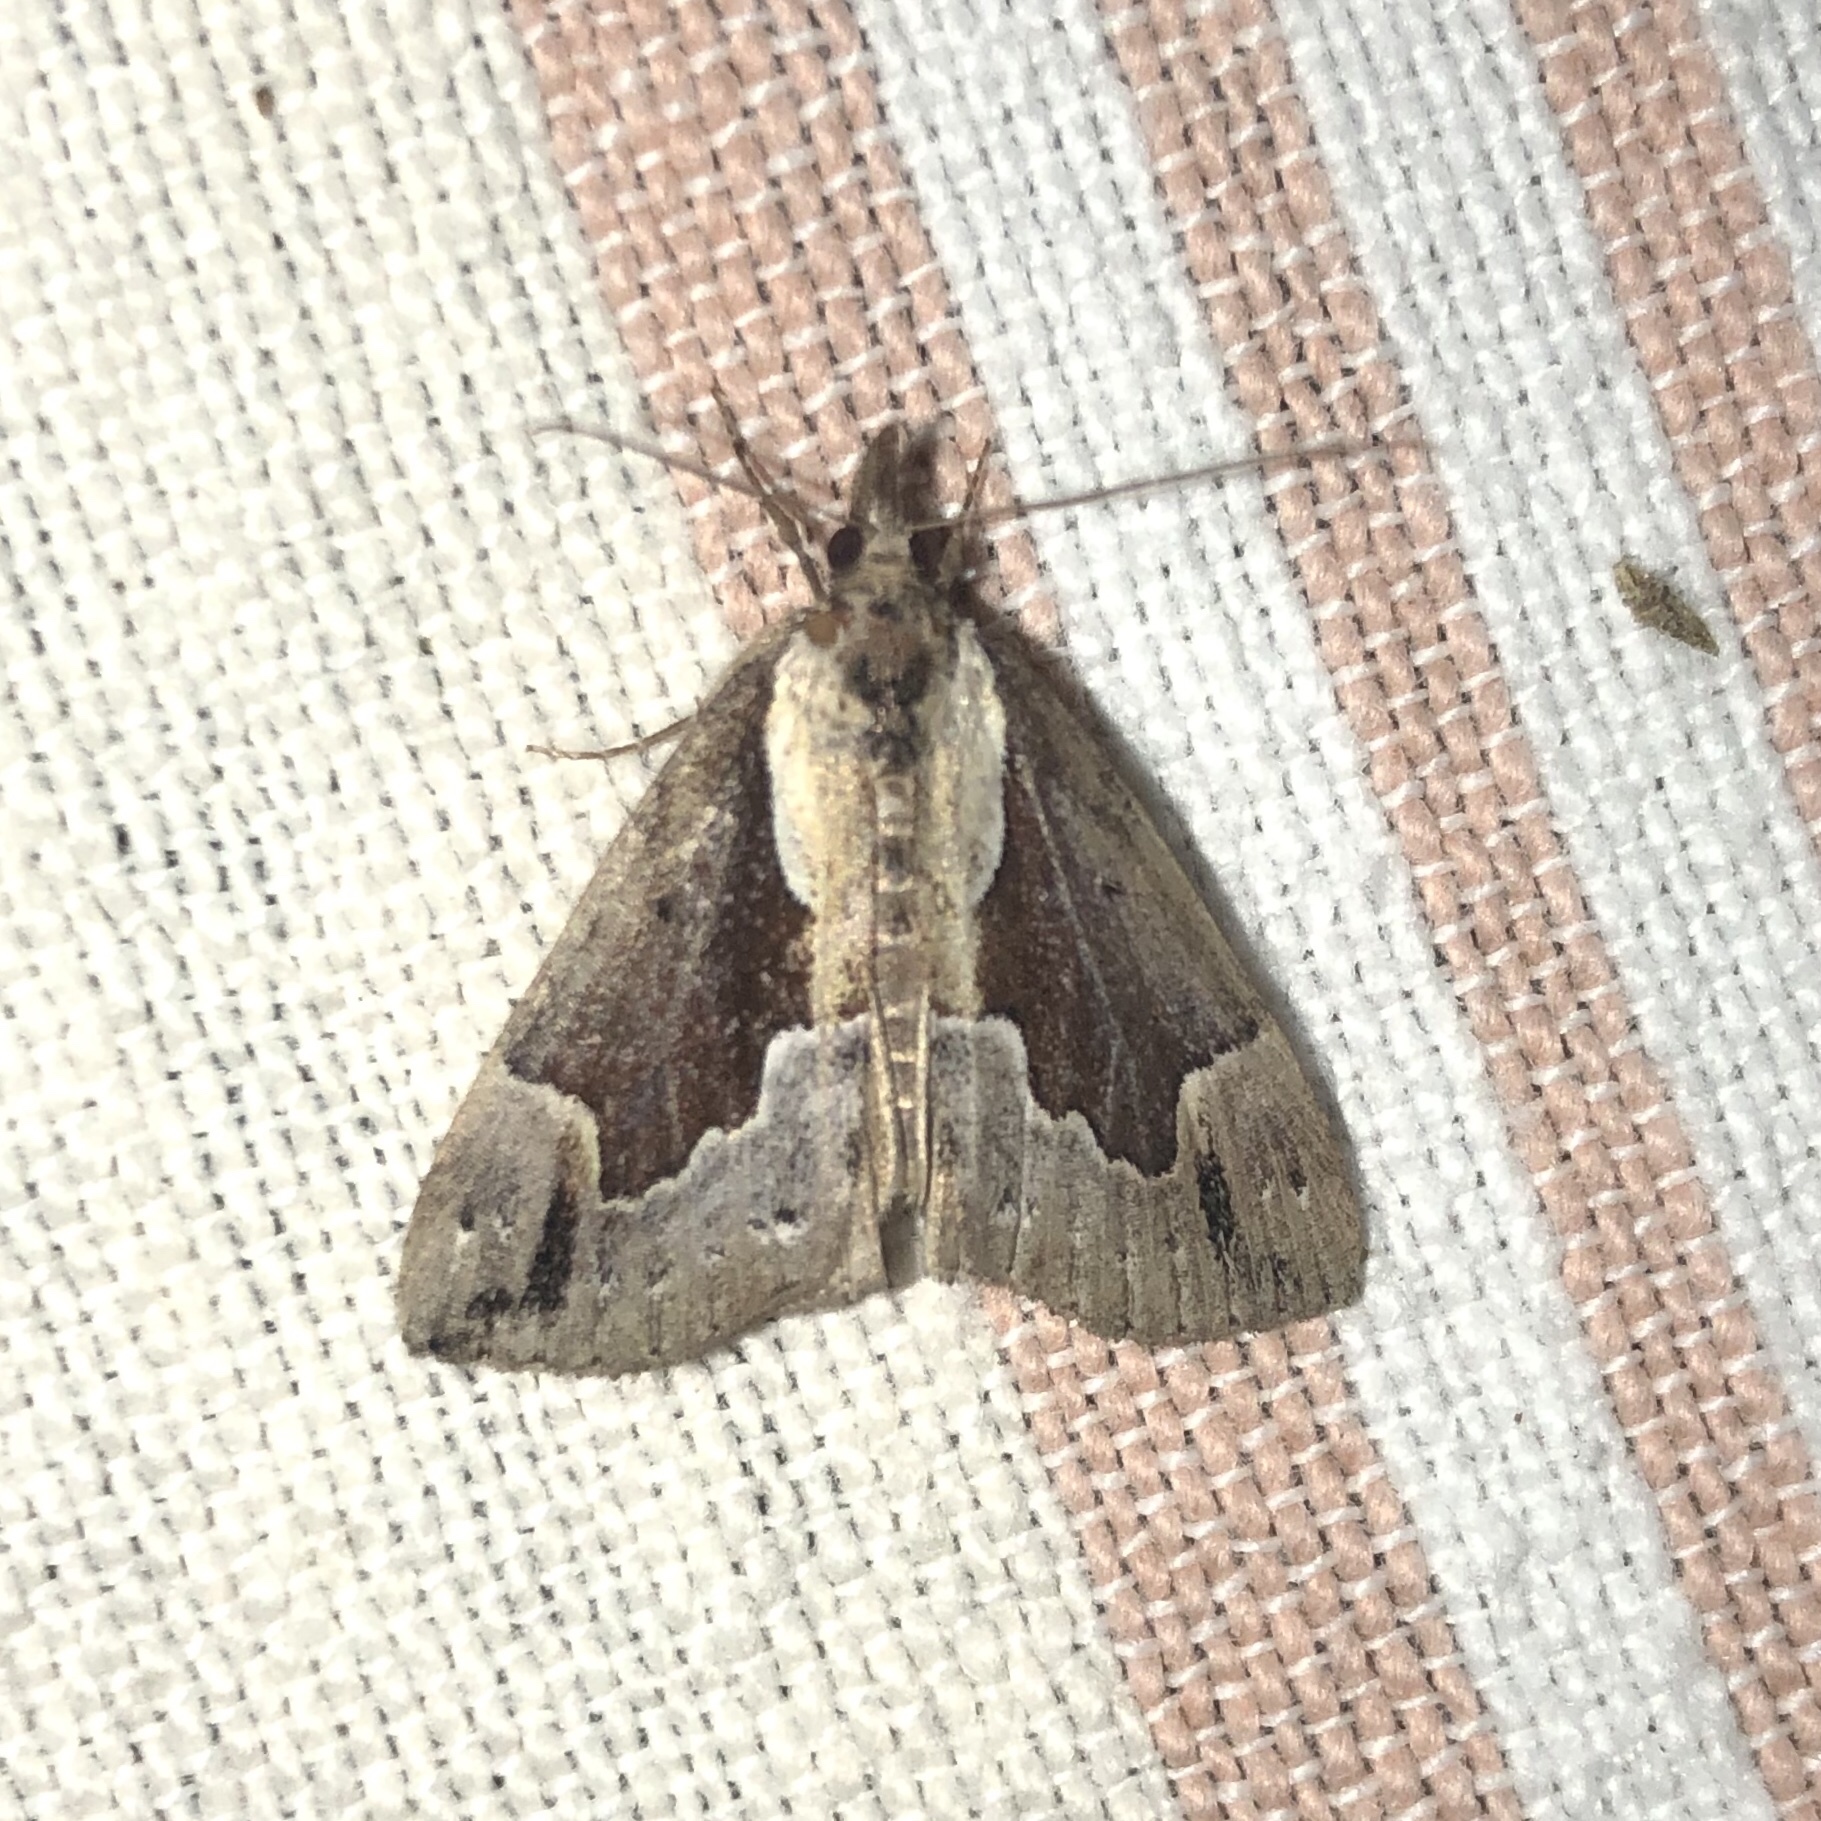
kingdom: Animalia
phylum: Arthropoda
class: Insecta
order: Lepidoptera
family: Erebidae
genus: Hypena
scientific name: Hypena baltimoralis
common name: Baltimore snout
